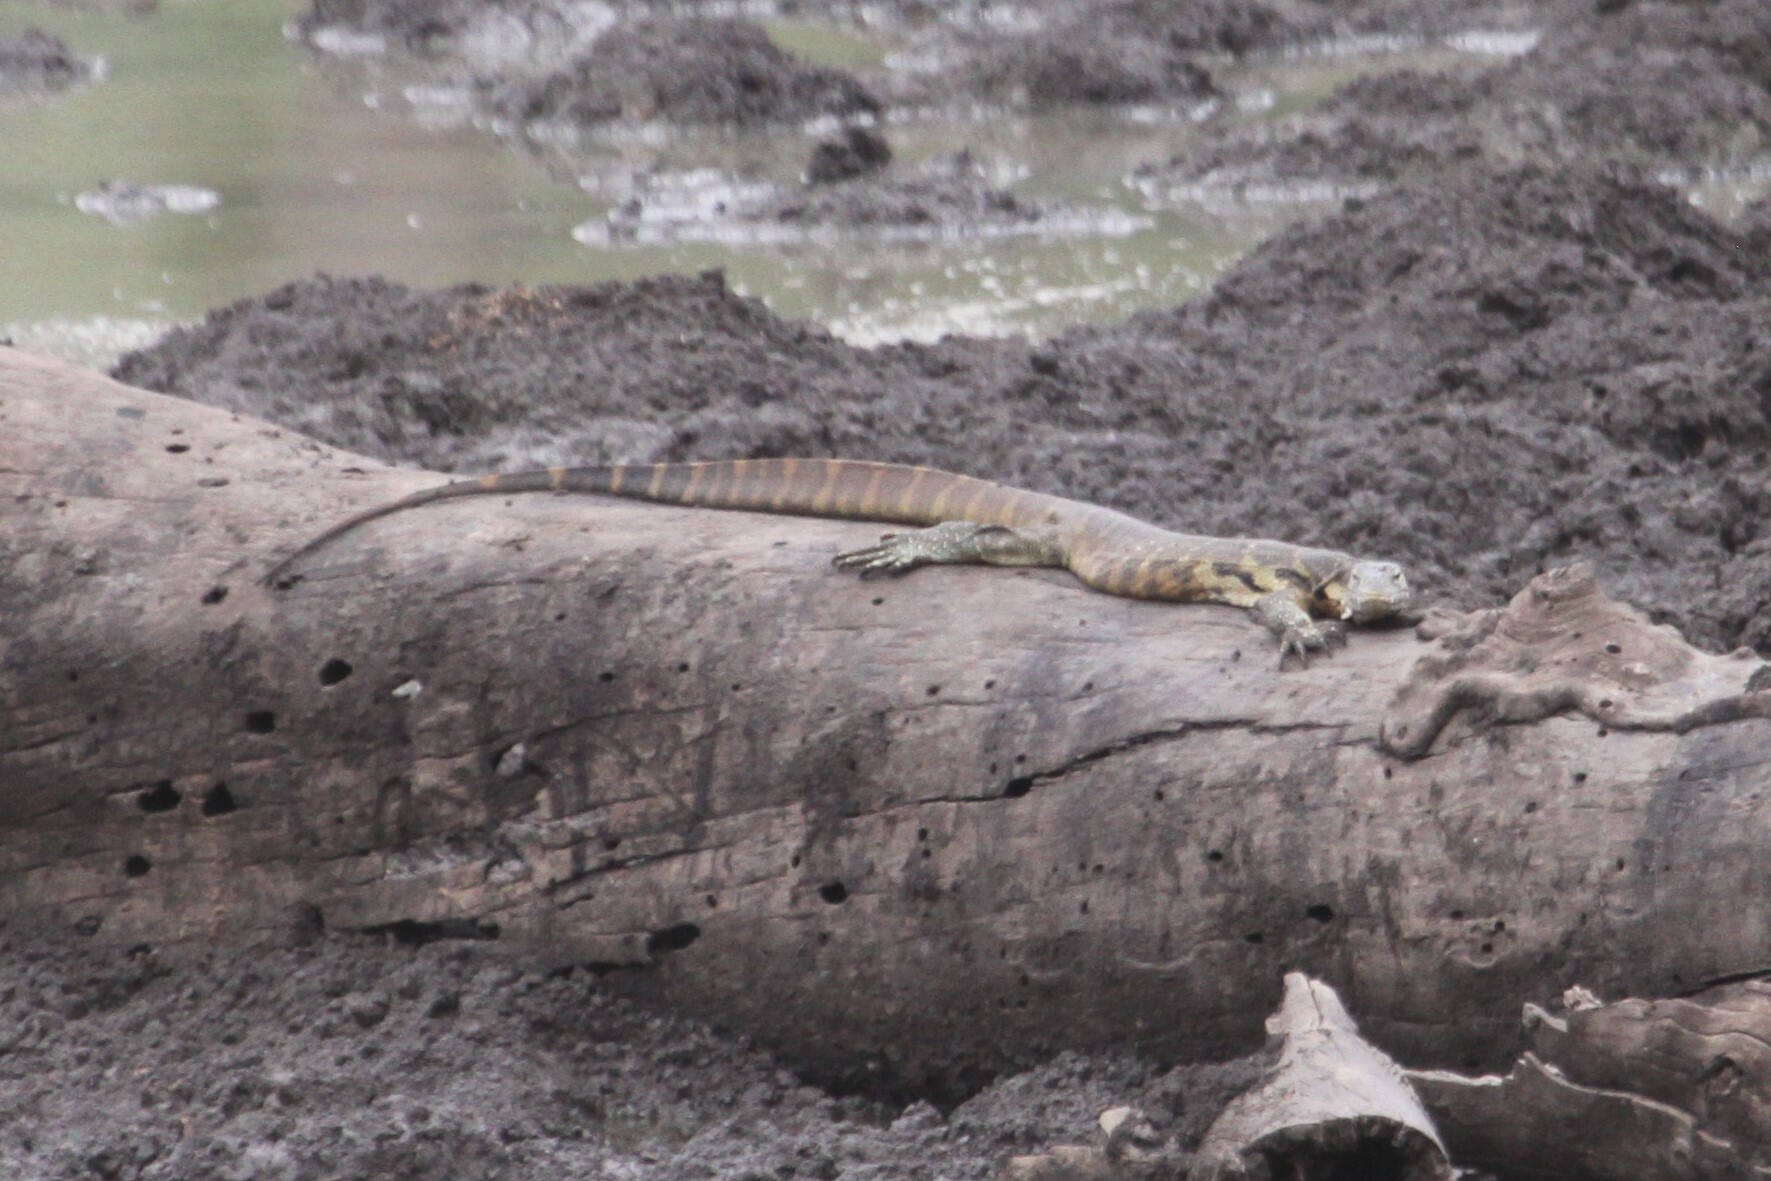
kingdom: Animalia
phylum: Chordata
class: Squamata
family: Varanidae
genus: Varanus
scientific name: Varanus niloticus
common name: Nile monitor
